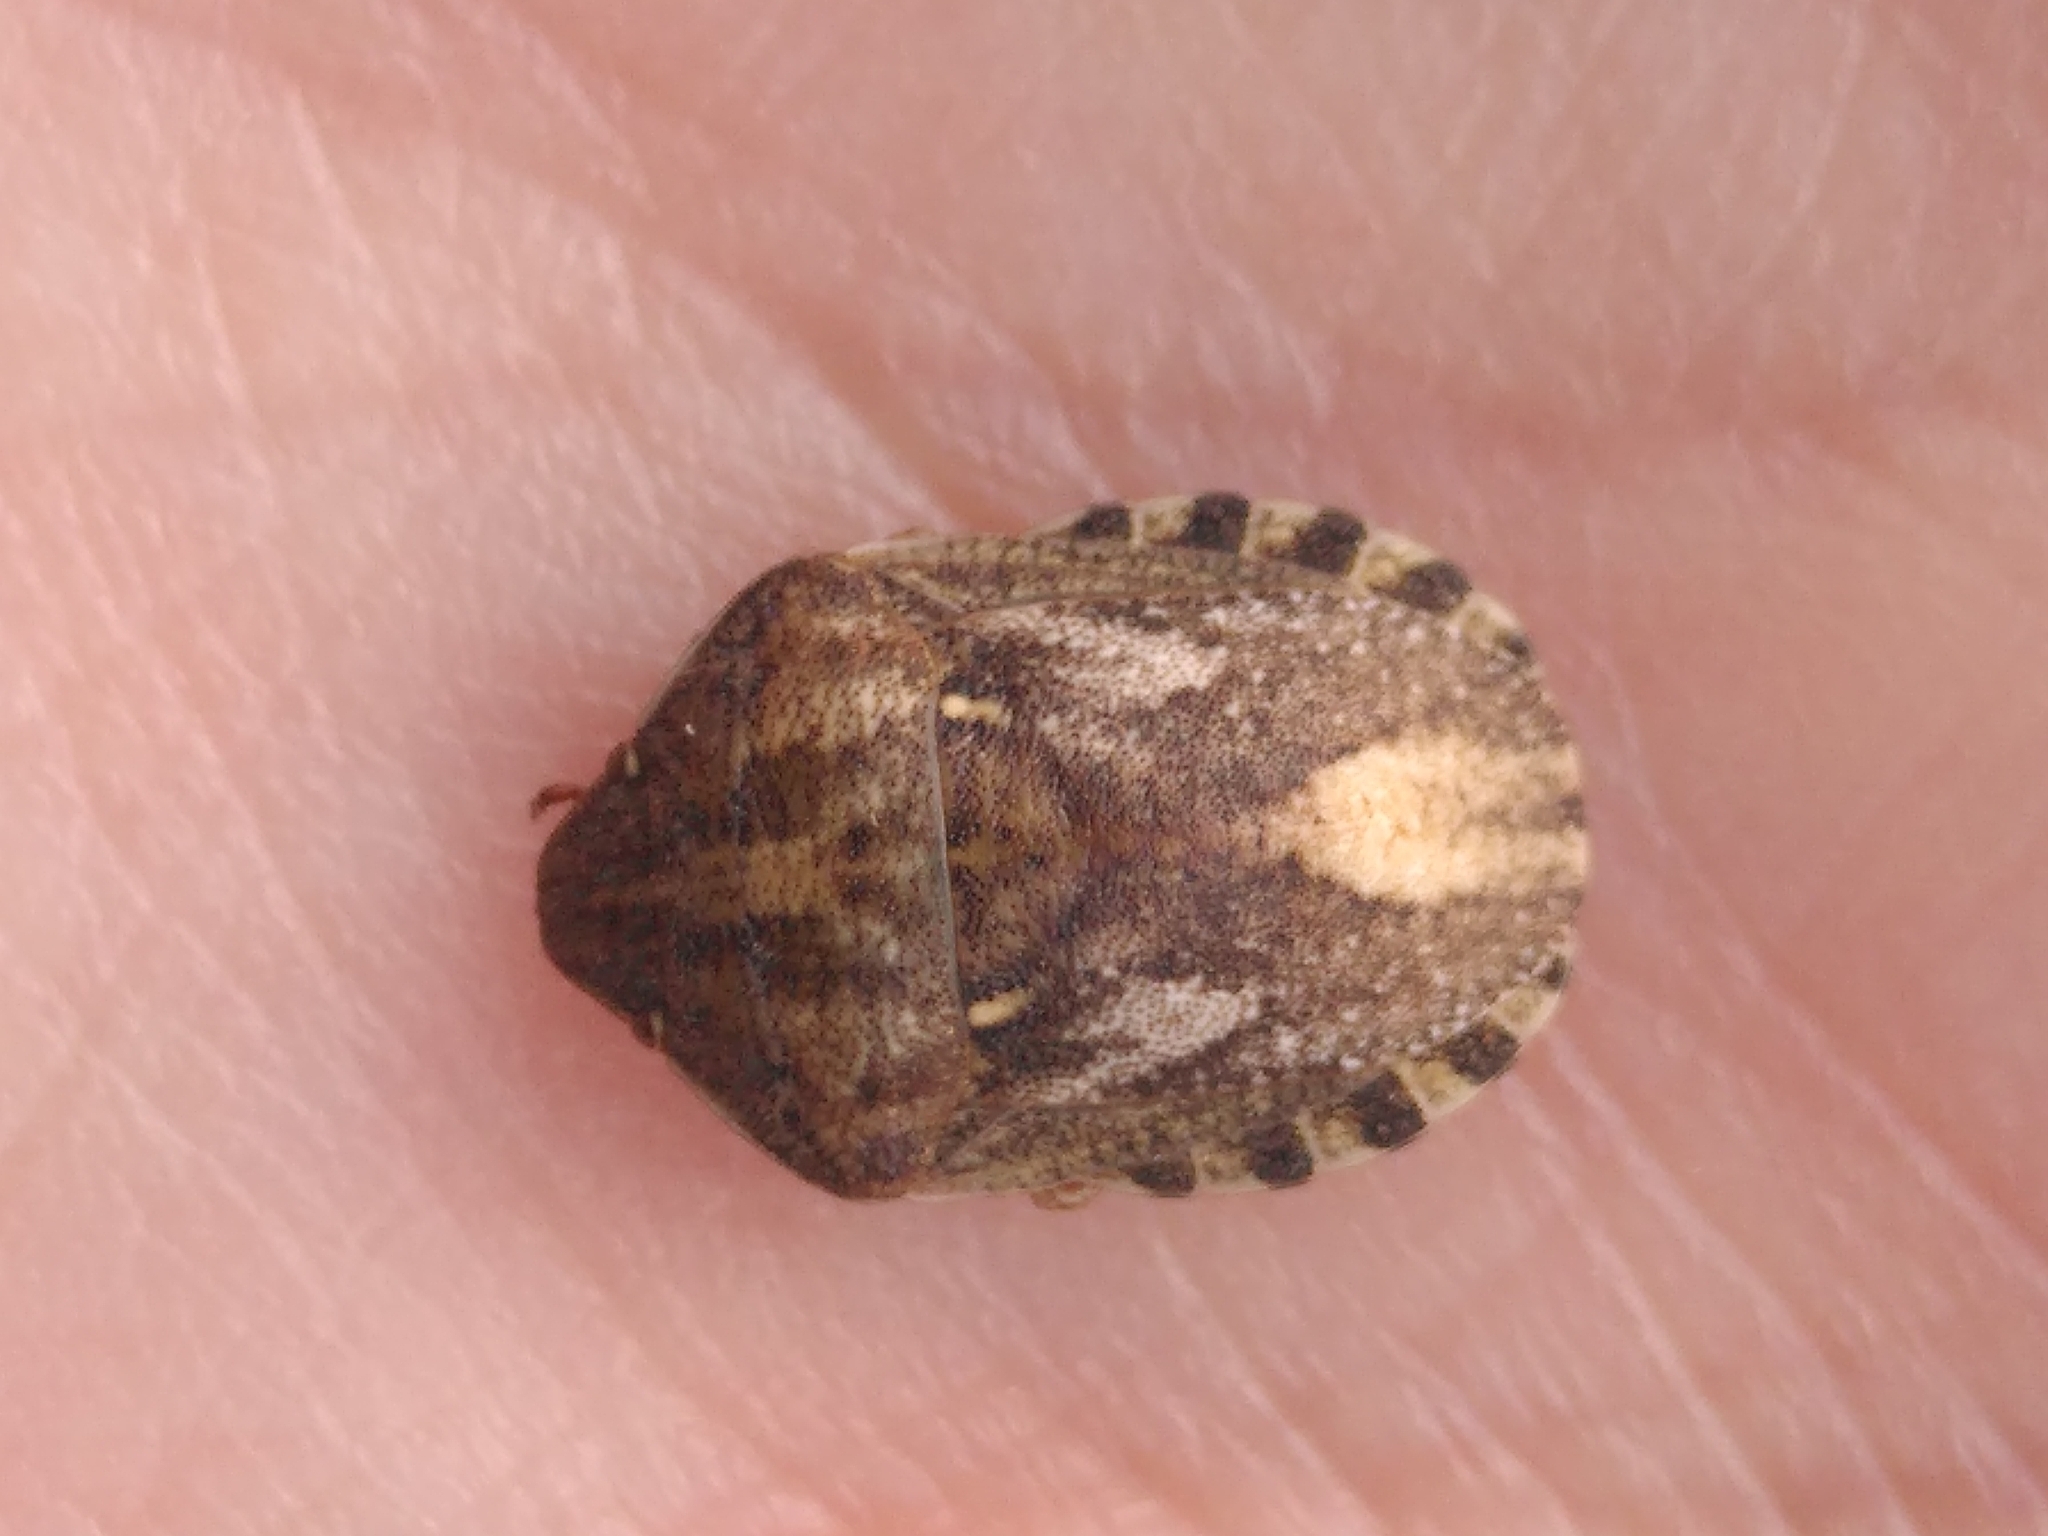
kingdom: Animalia
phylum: Arthropoda
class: Insecta
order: Hemiptera
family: Scutelleridae
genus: Eurygaster
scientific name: Eurygaster maura
